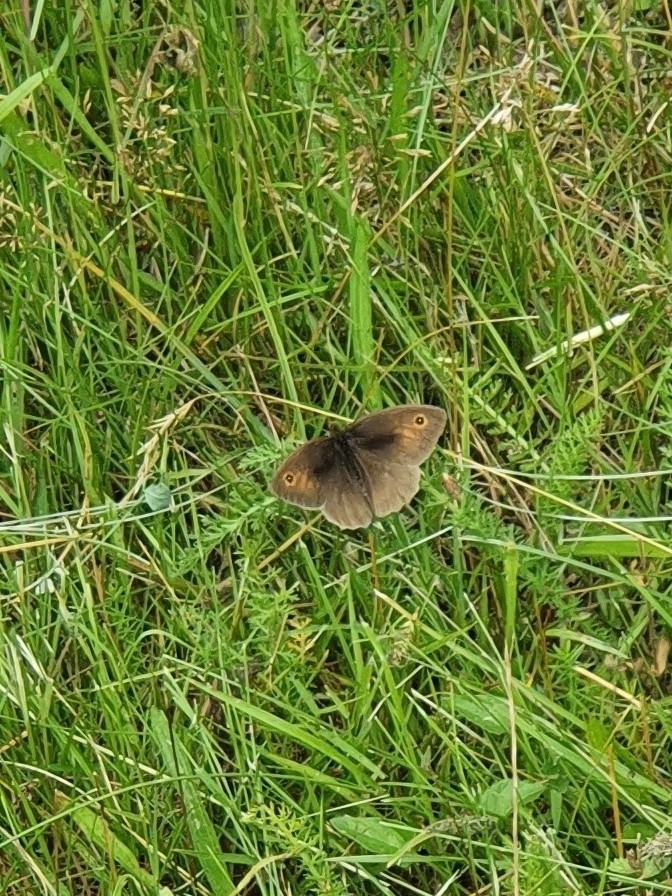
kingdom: Animalia
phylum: Arthropoda
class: Insecta
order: Lepidoptera
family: Nymphalidae
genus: Maniola
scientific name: Maniola jurtina
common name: Meadow brown
